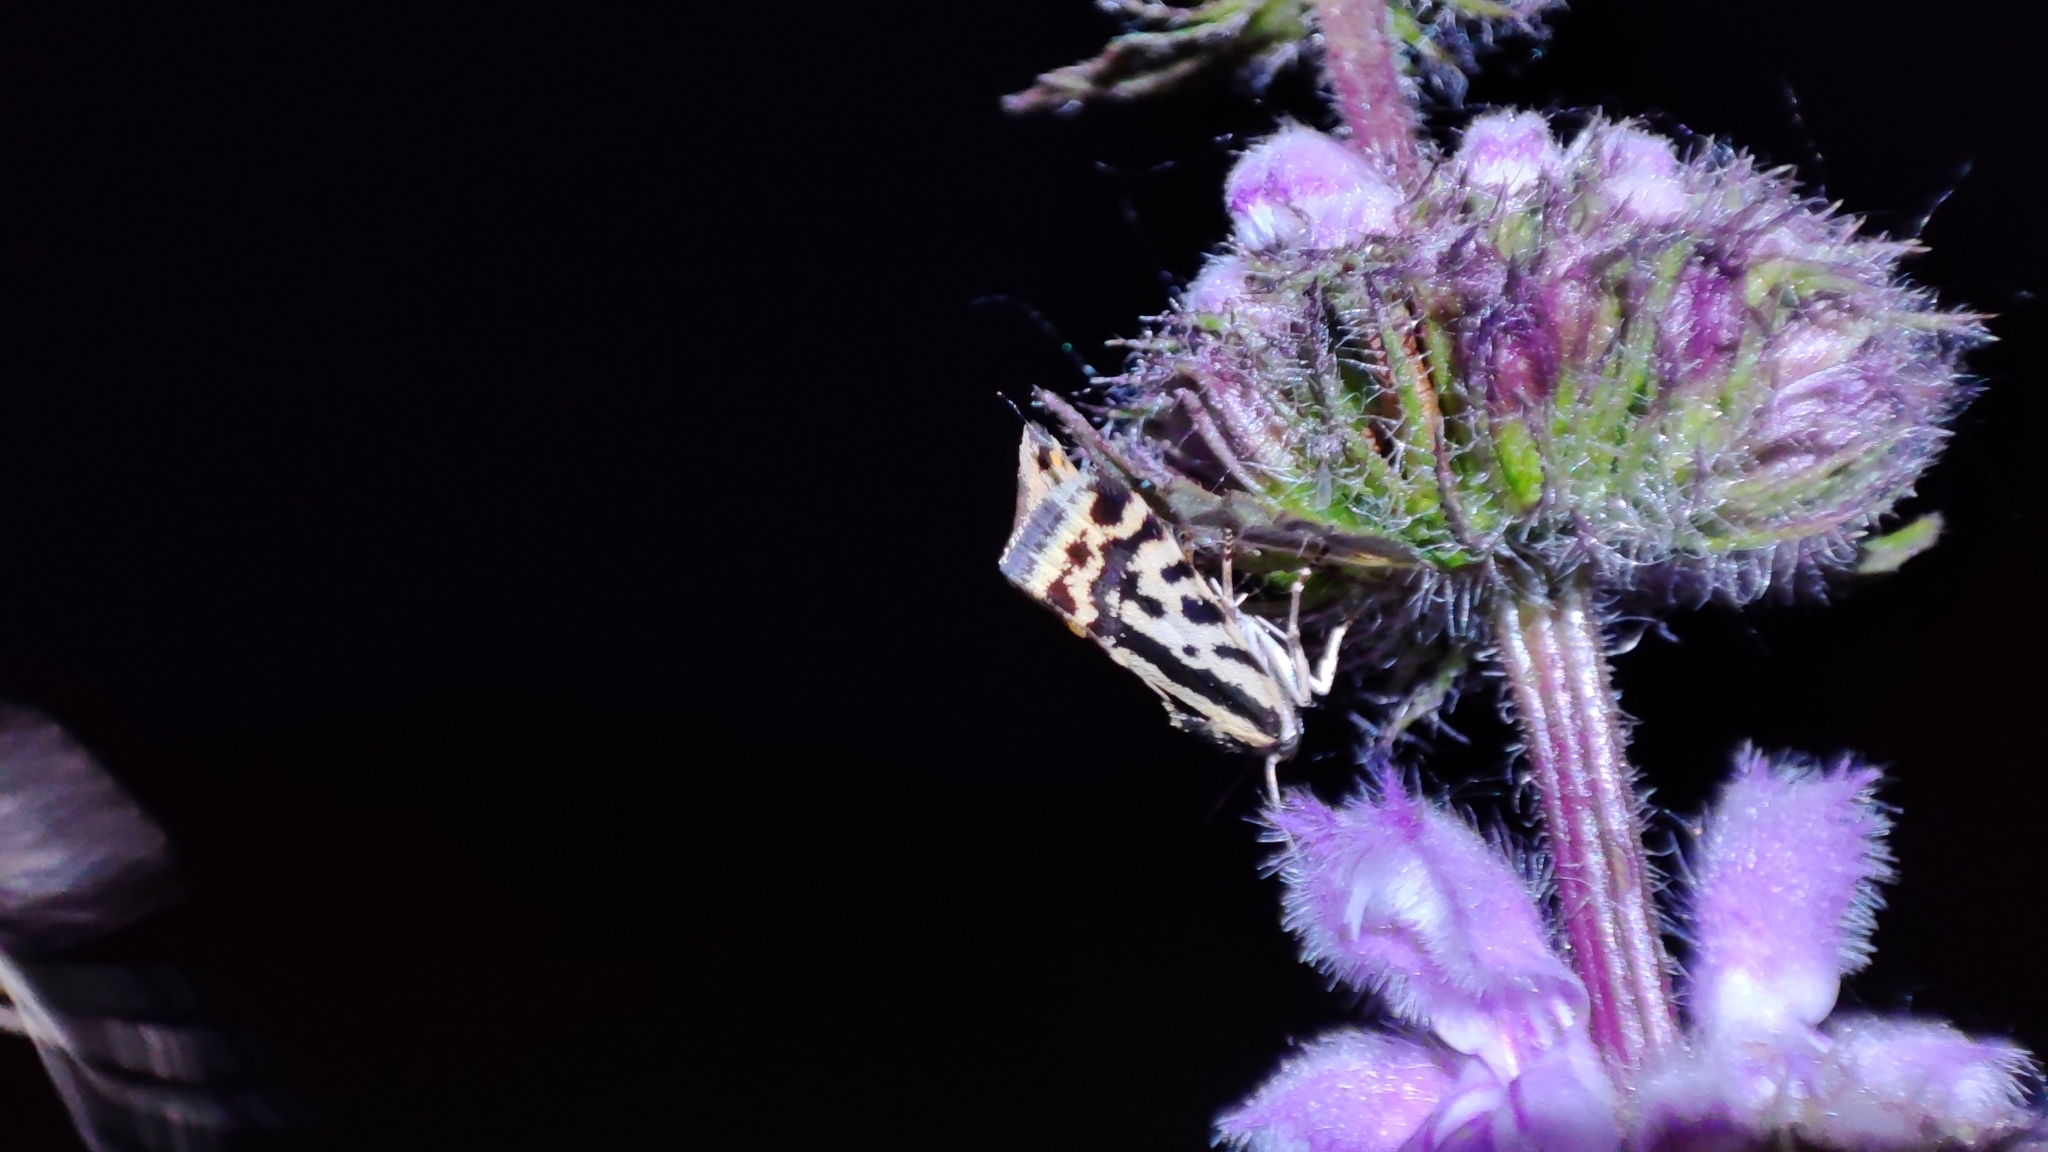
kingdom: Animalia
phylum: Arthropoda
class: Insecta
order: Lepidoptera
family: Noctuidae
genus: Acontia
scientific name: Acontia trabealis
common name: Spotted sulphur
